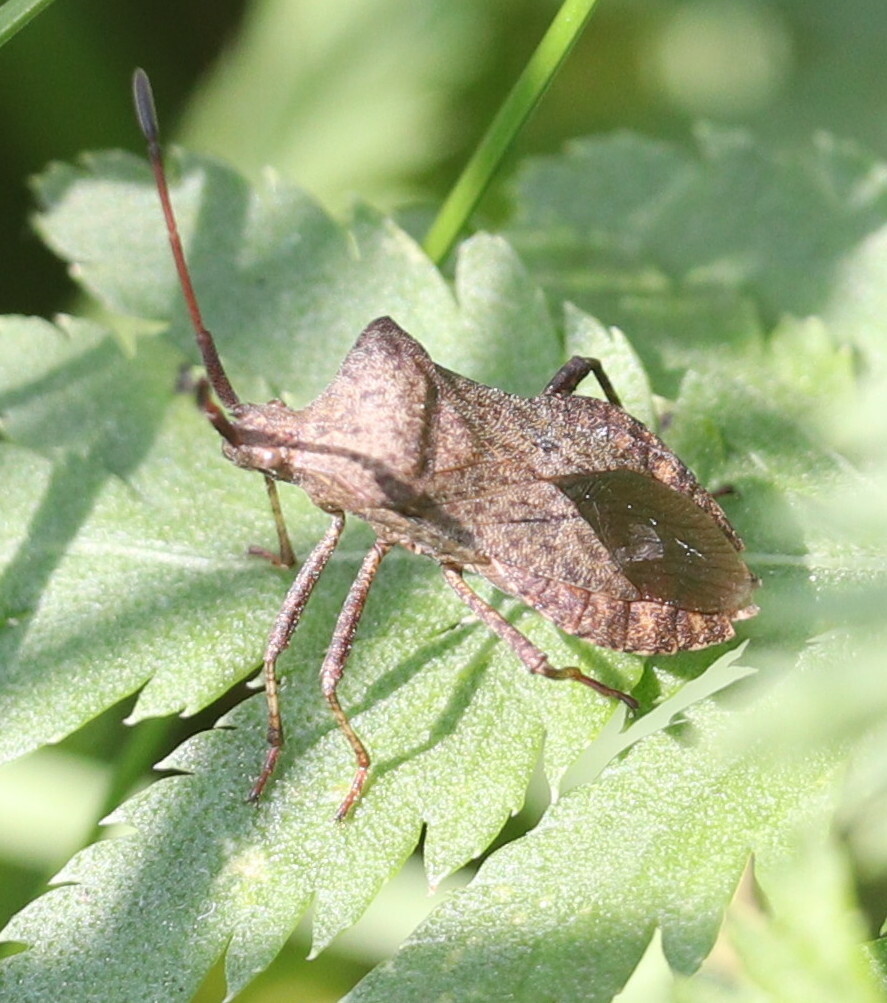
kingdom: Animalia
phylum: Arthropoda
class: Insecta
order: Hemiptera
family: Coreidae
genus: Coreus
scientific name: Coreus marginatus
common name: Dock bug
